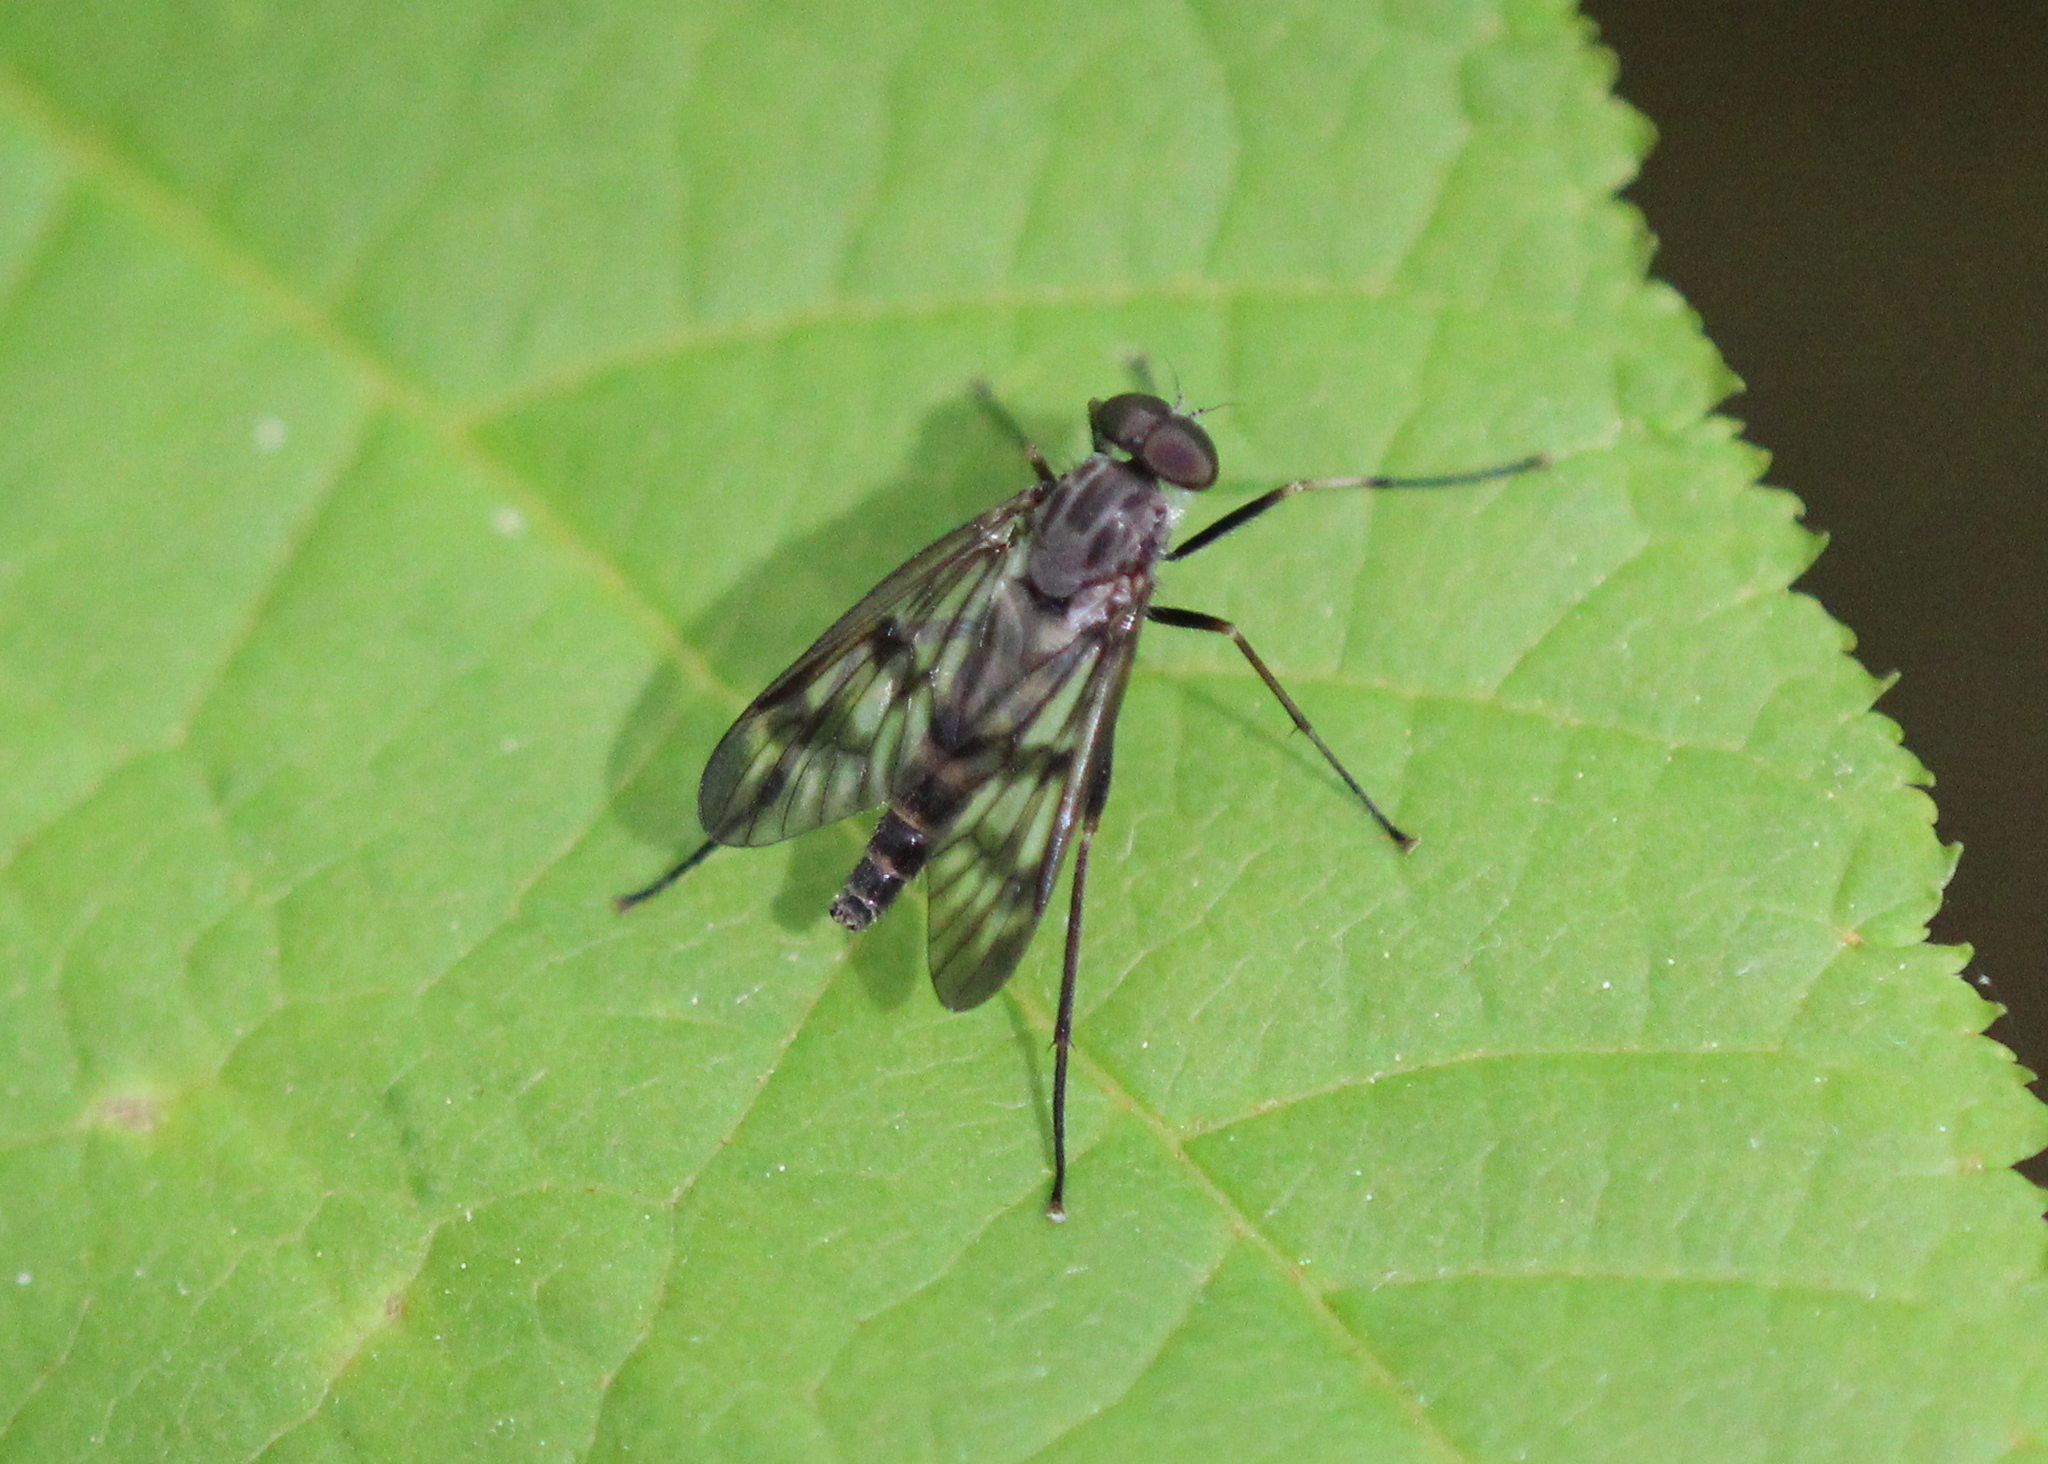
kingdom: Animalia
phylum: Arthropoda
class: Insecta
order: Diptera
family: Rhagionidae
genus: Rhagio
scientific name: Rhagio mystaceus
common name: Common snipe fly
